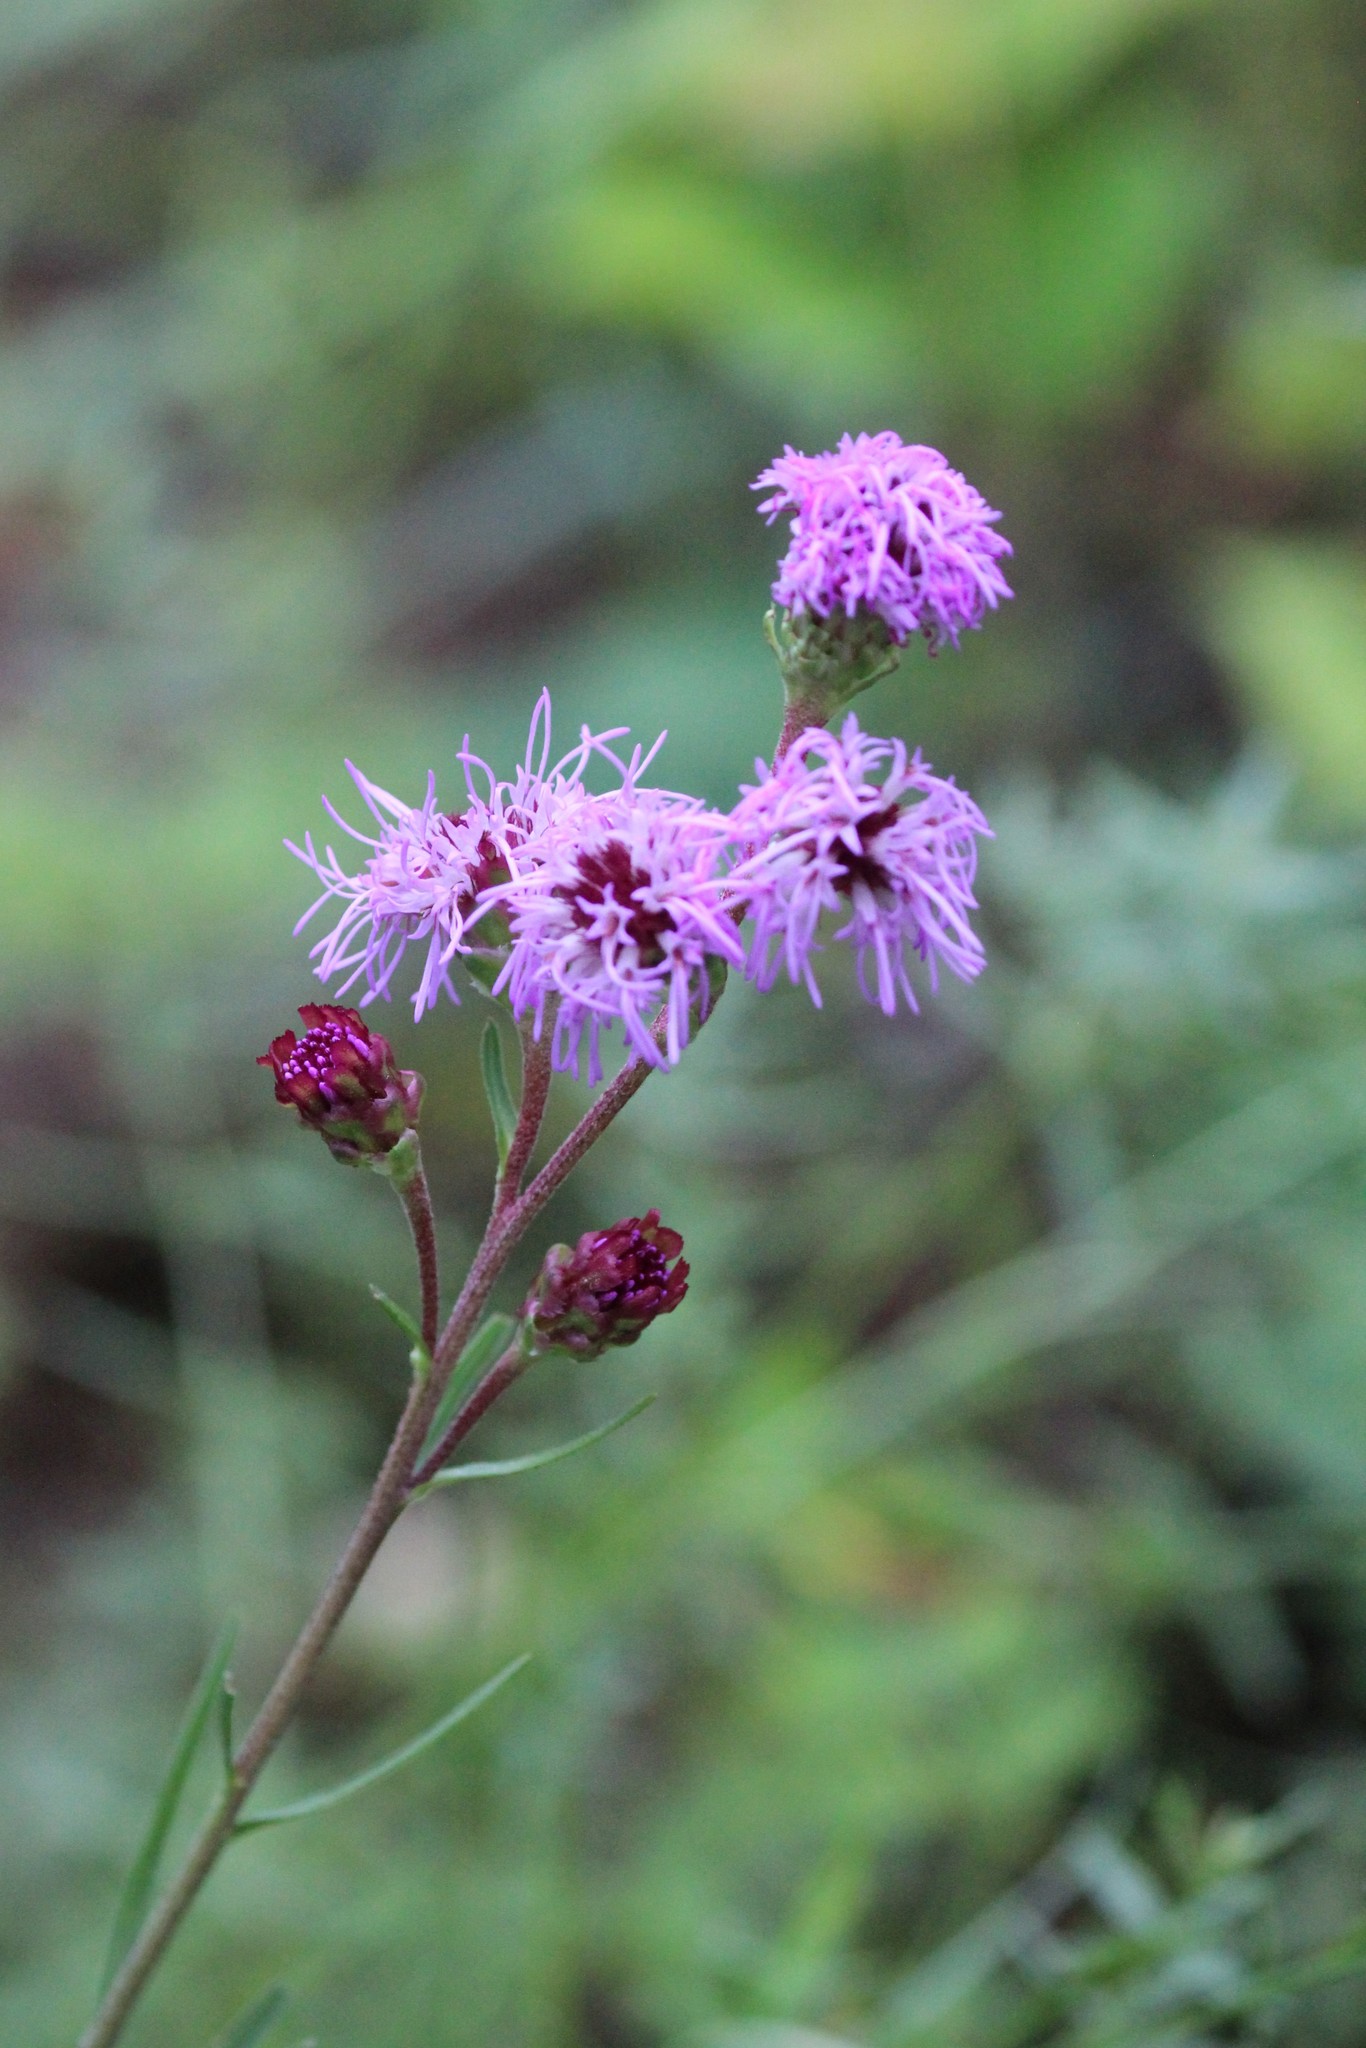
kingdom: Plantae
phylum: Tracheophyta
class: Magnoliopsida
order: Asterales
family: Asteraceae
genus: Liatris
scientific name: Liatris ligulistylis
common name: Northern plains gayfeather
